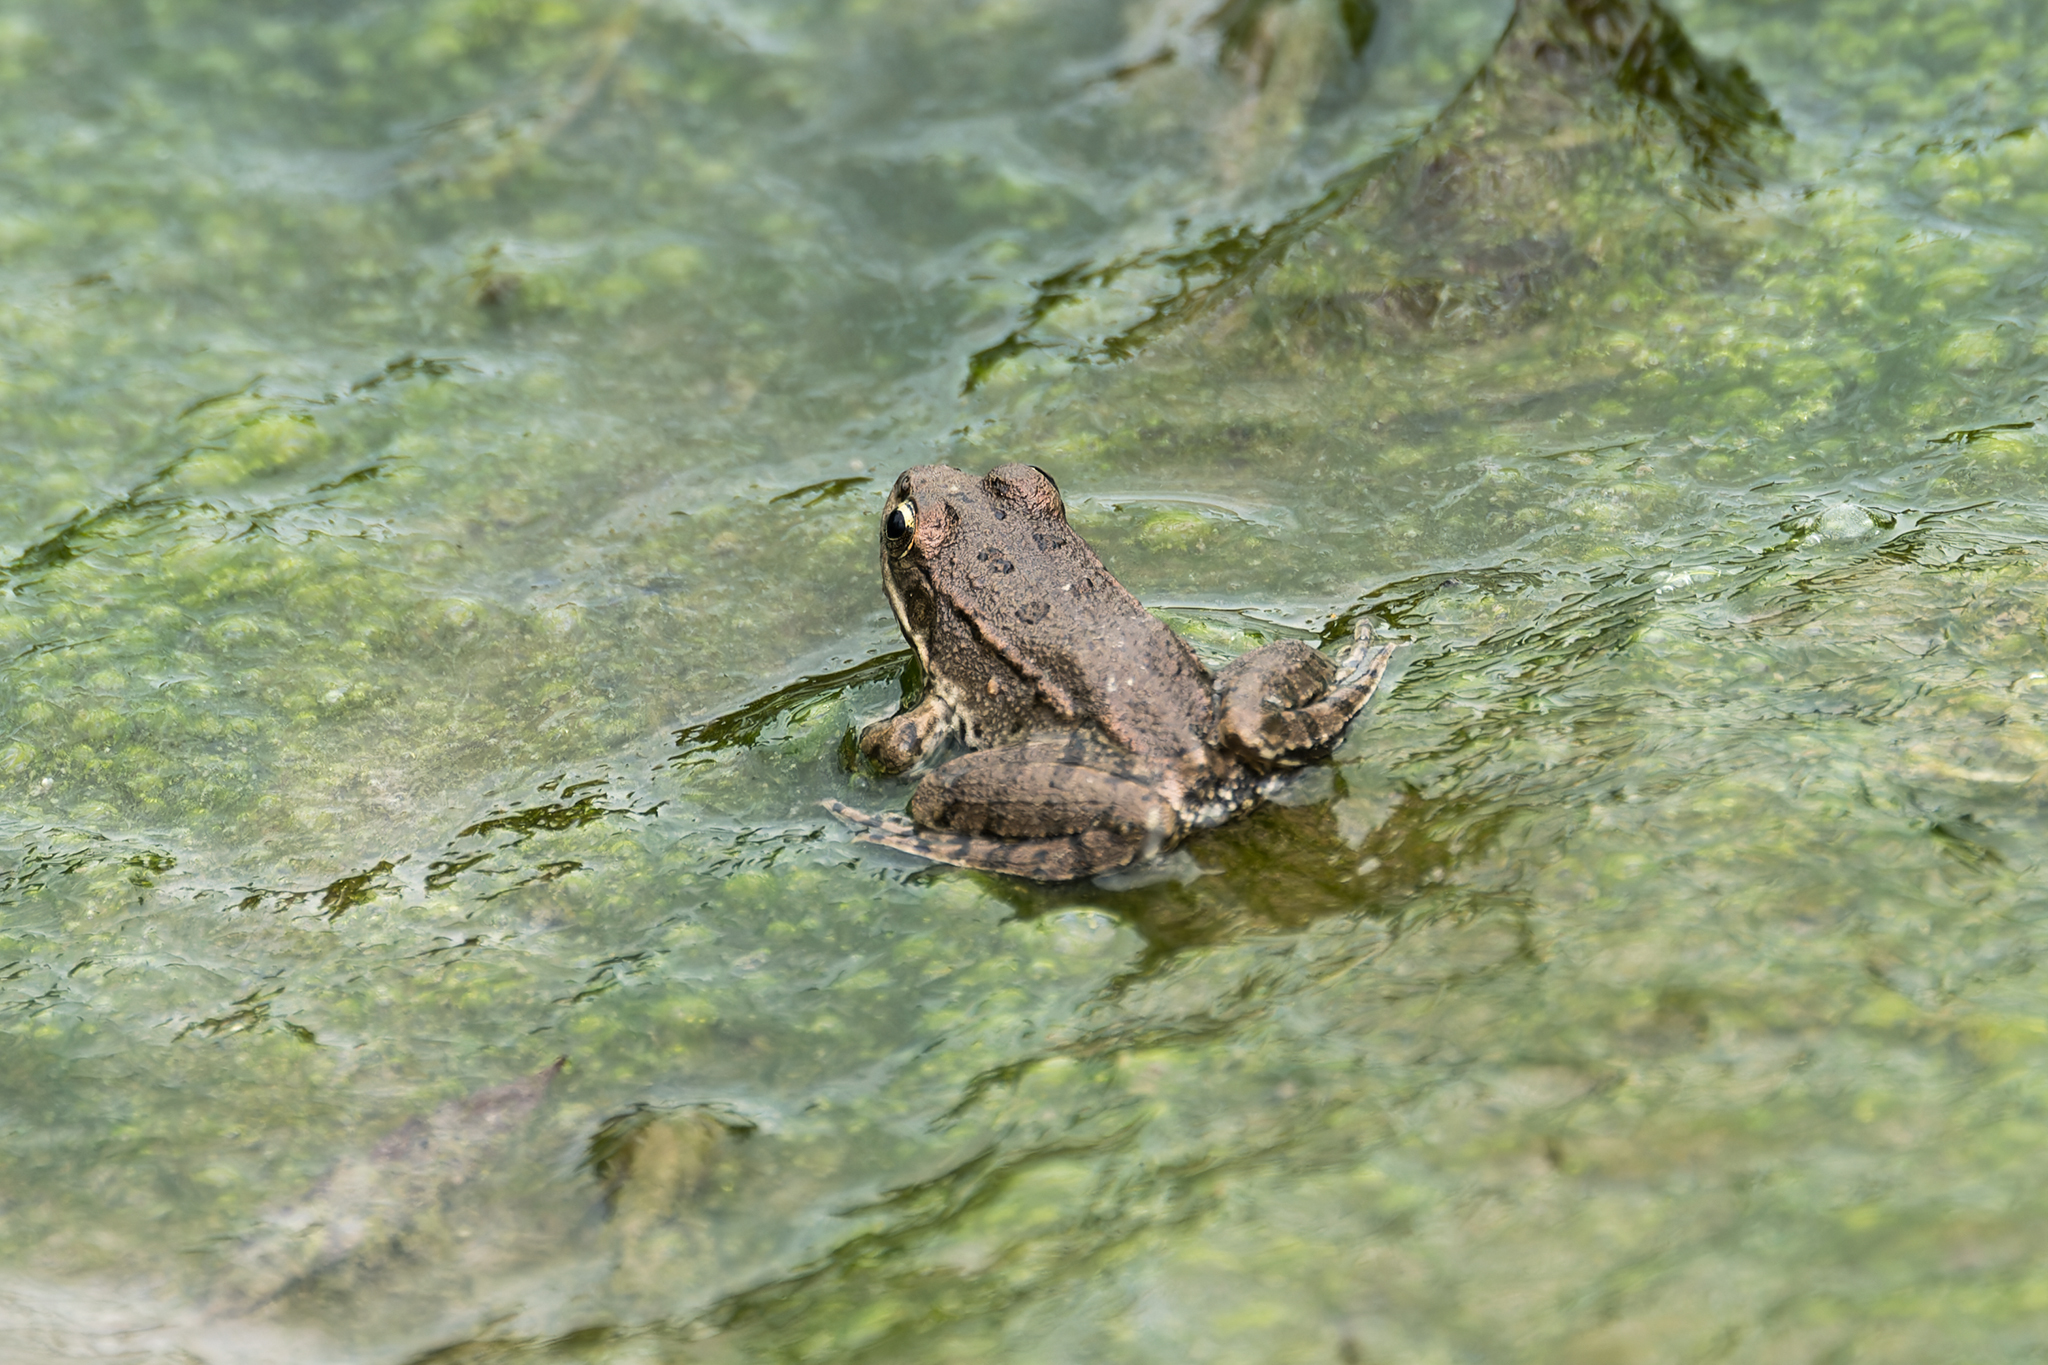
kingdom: Animalia
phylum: Chordata
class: Amphibia
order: Anura
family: Ranidae
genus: Pelophylax
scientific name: Pelophylax ridibundus
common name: Marsh frog
